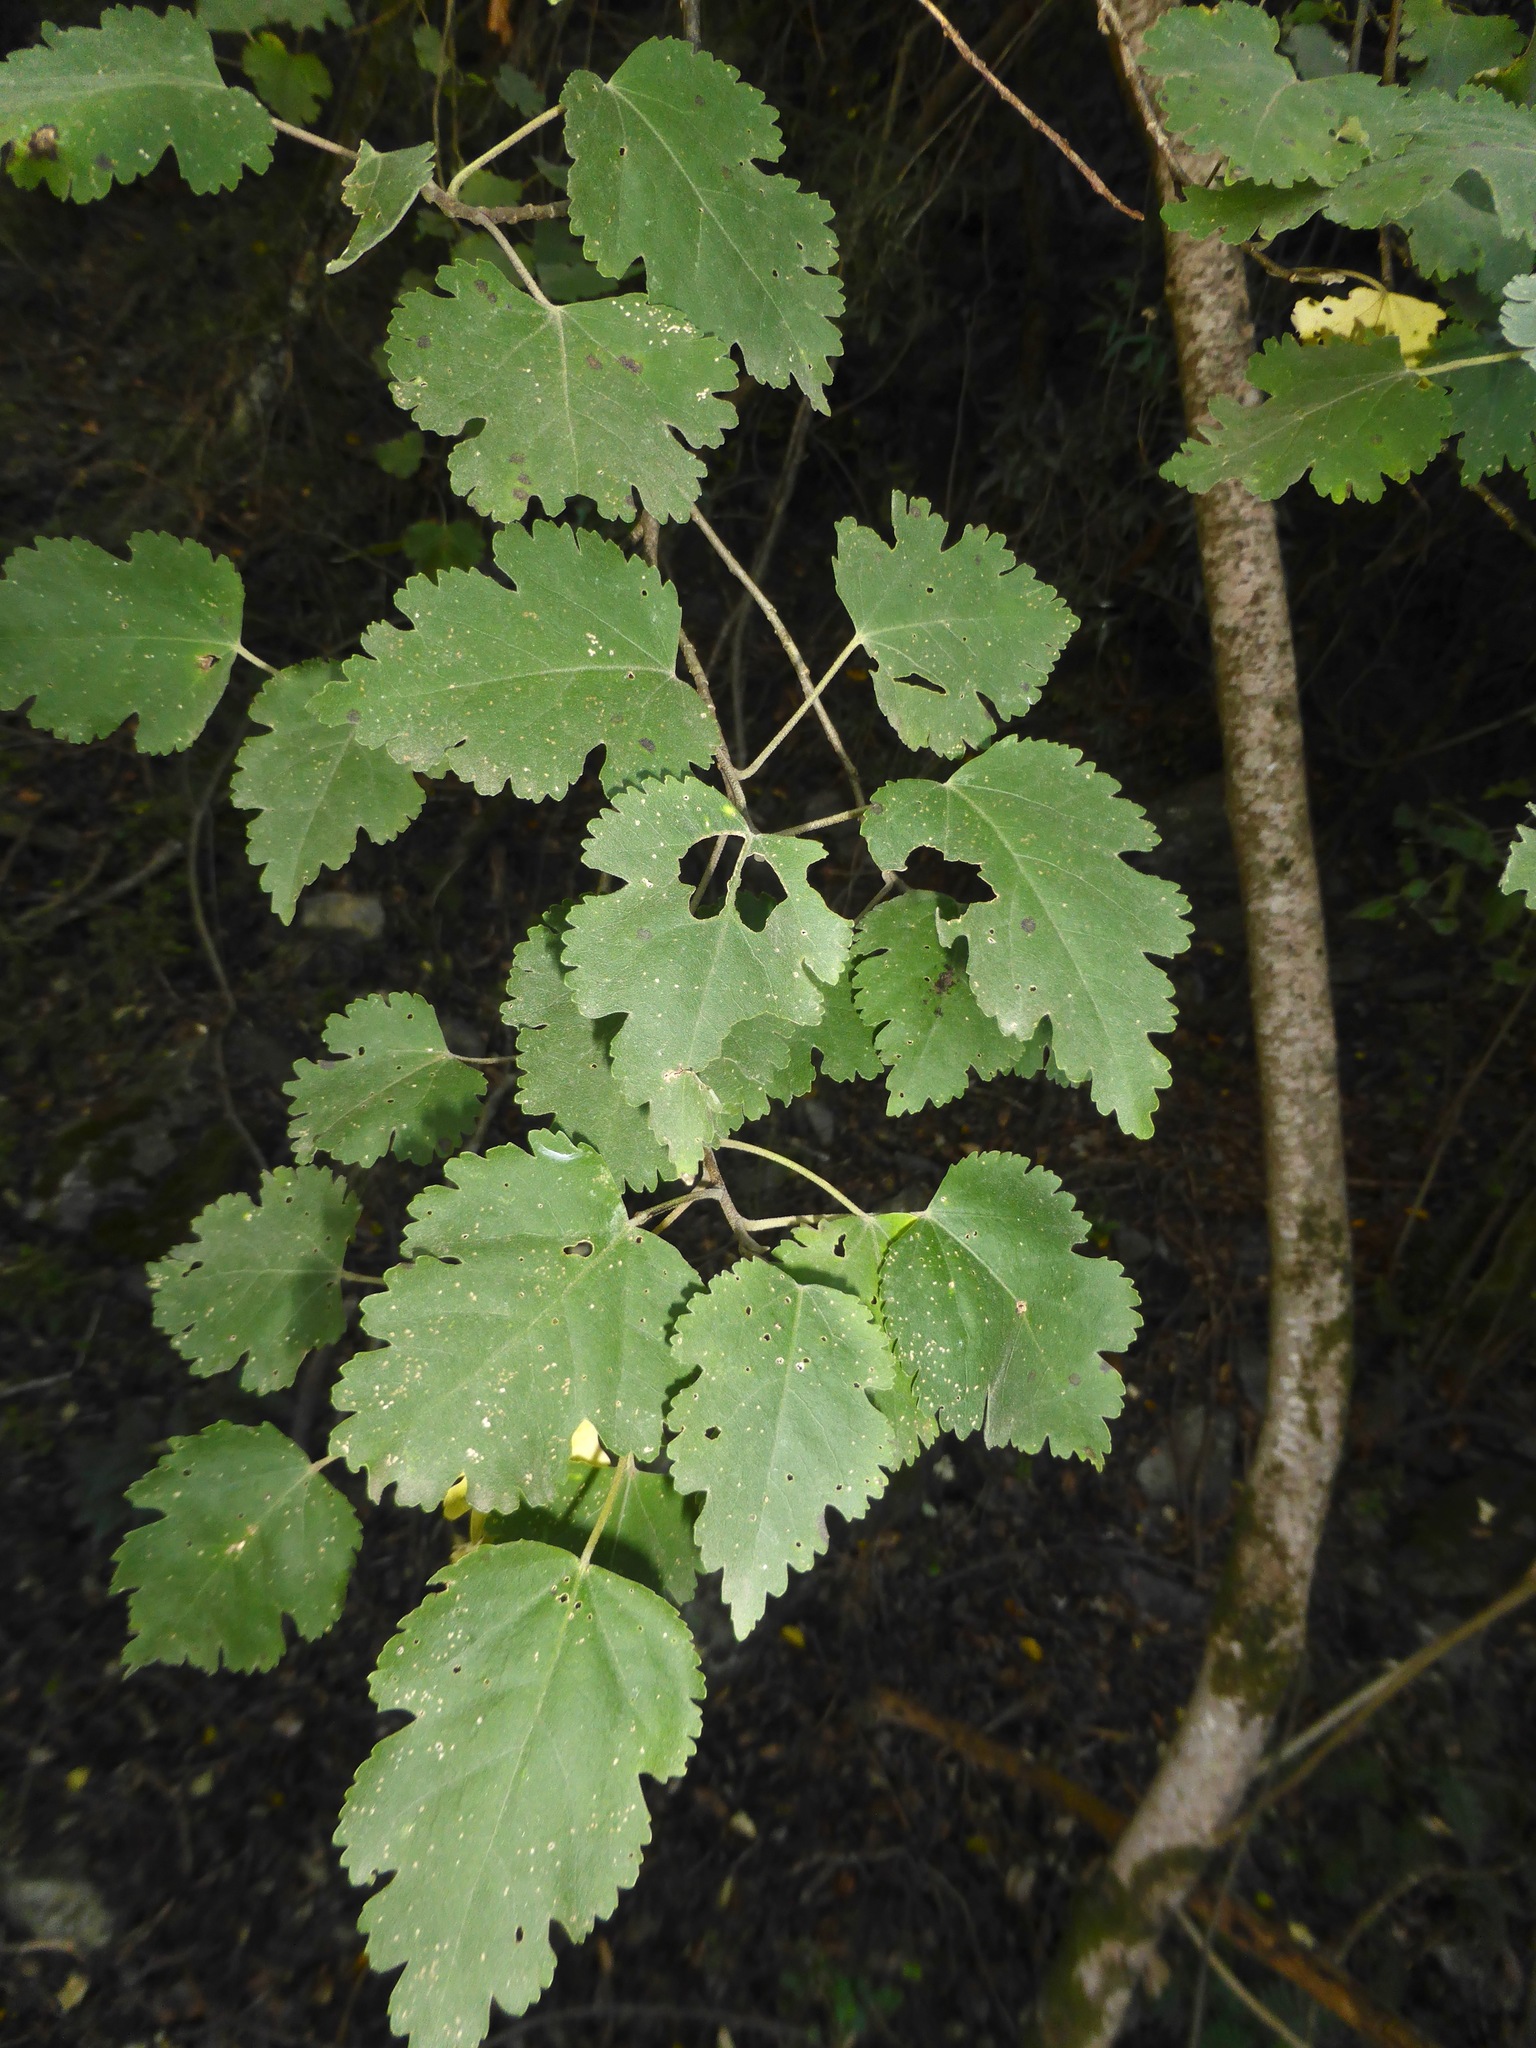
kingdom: Plantae
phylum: Tracheophyta
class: Magnoliopsida
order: Malvales
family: Malvaceae
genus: Hoheria
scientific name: Hoheria lyallii
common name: Lacebark
